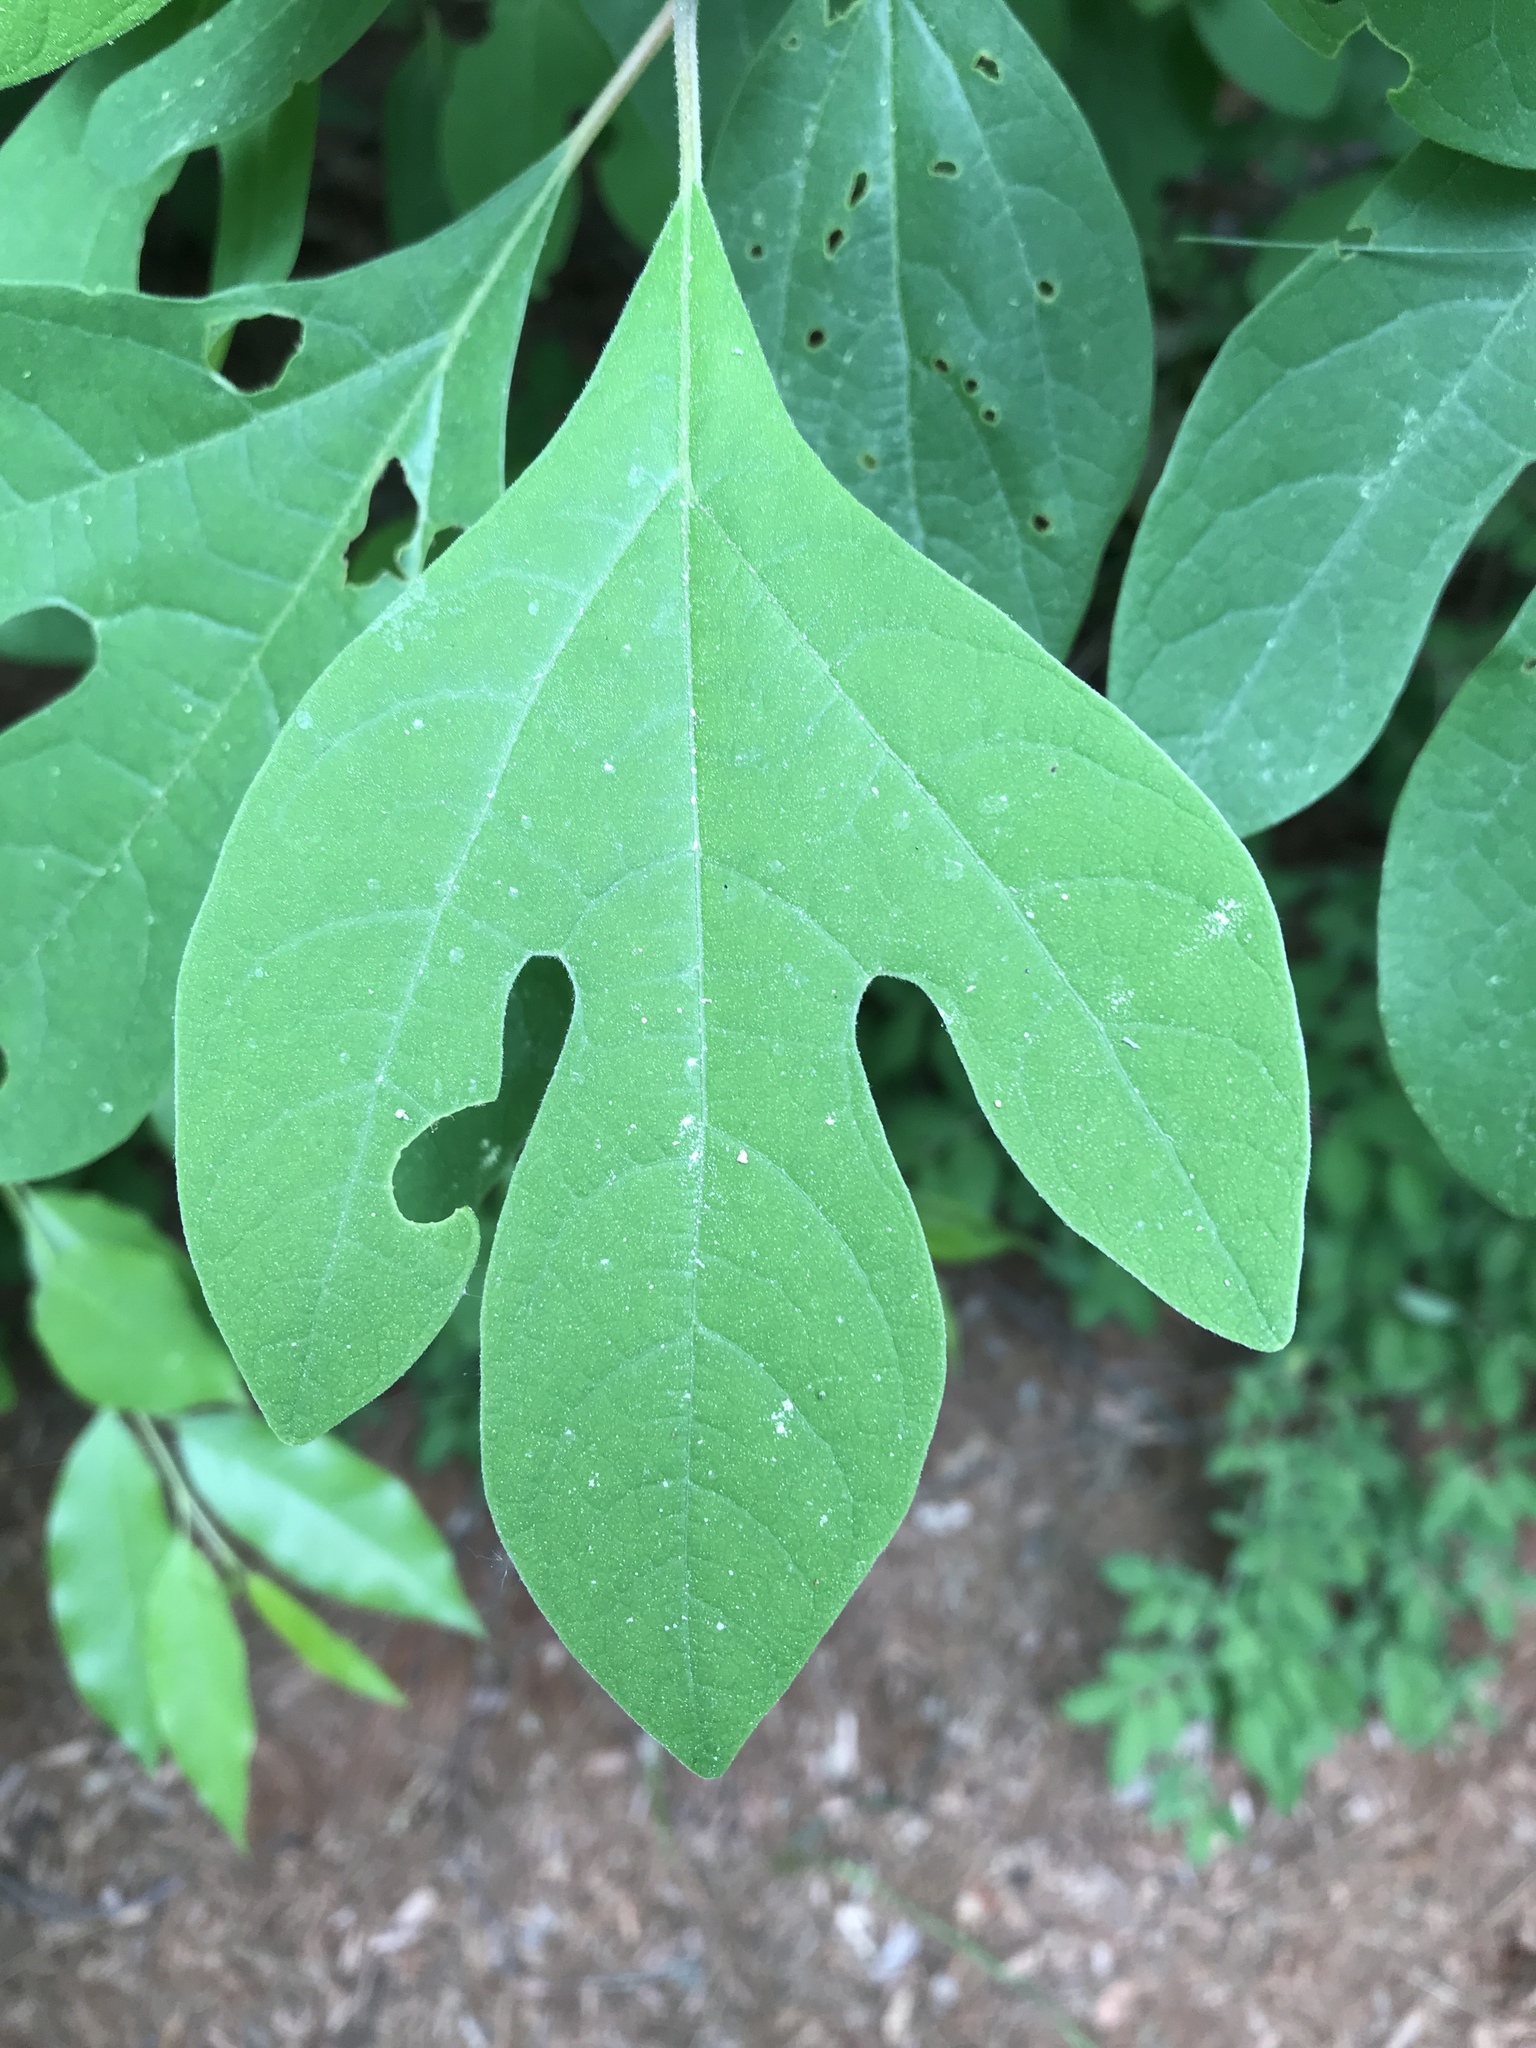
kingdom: Plantae
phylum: Tracheophyta
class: Magnoliopsida
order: Laurales
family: Lauraceae
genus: Sassafras
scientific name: Sassafras albidum
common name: Sassafras
